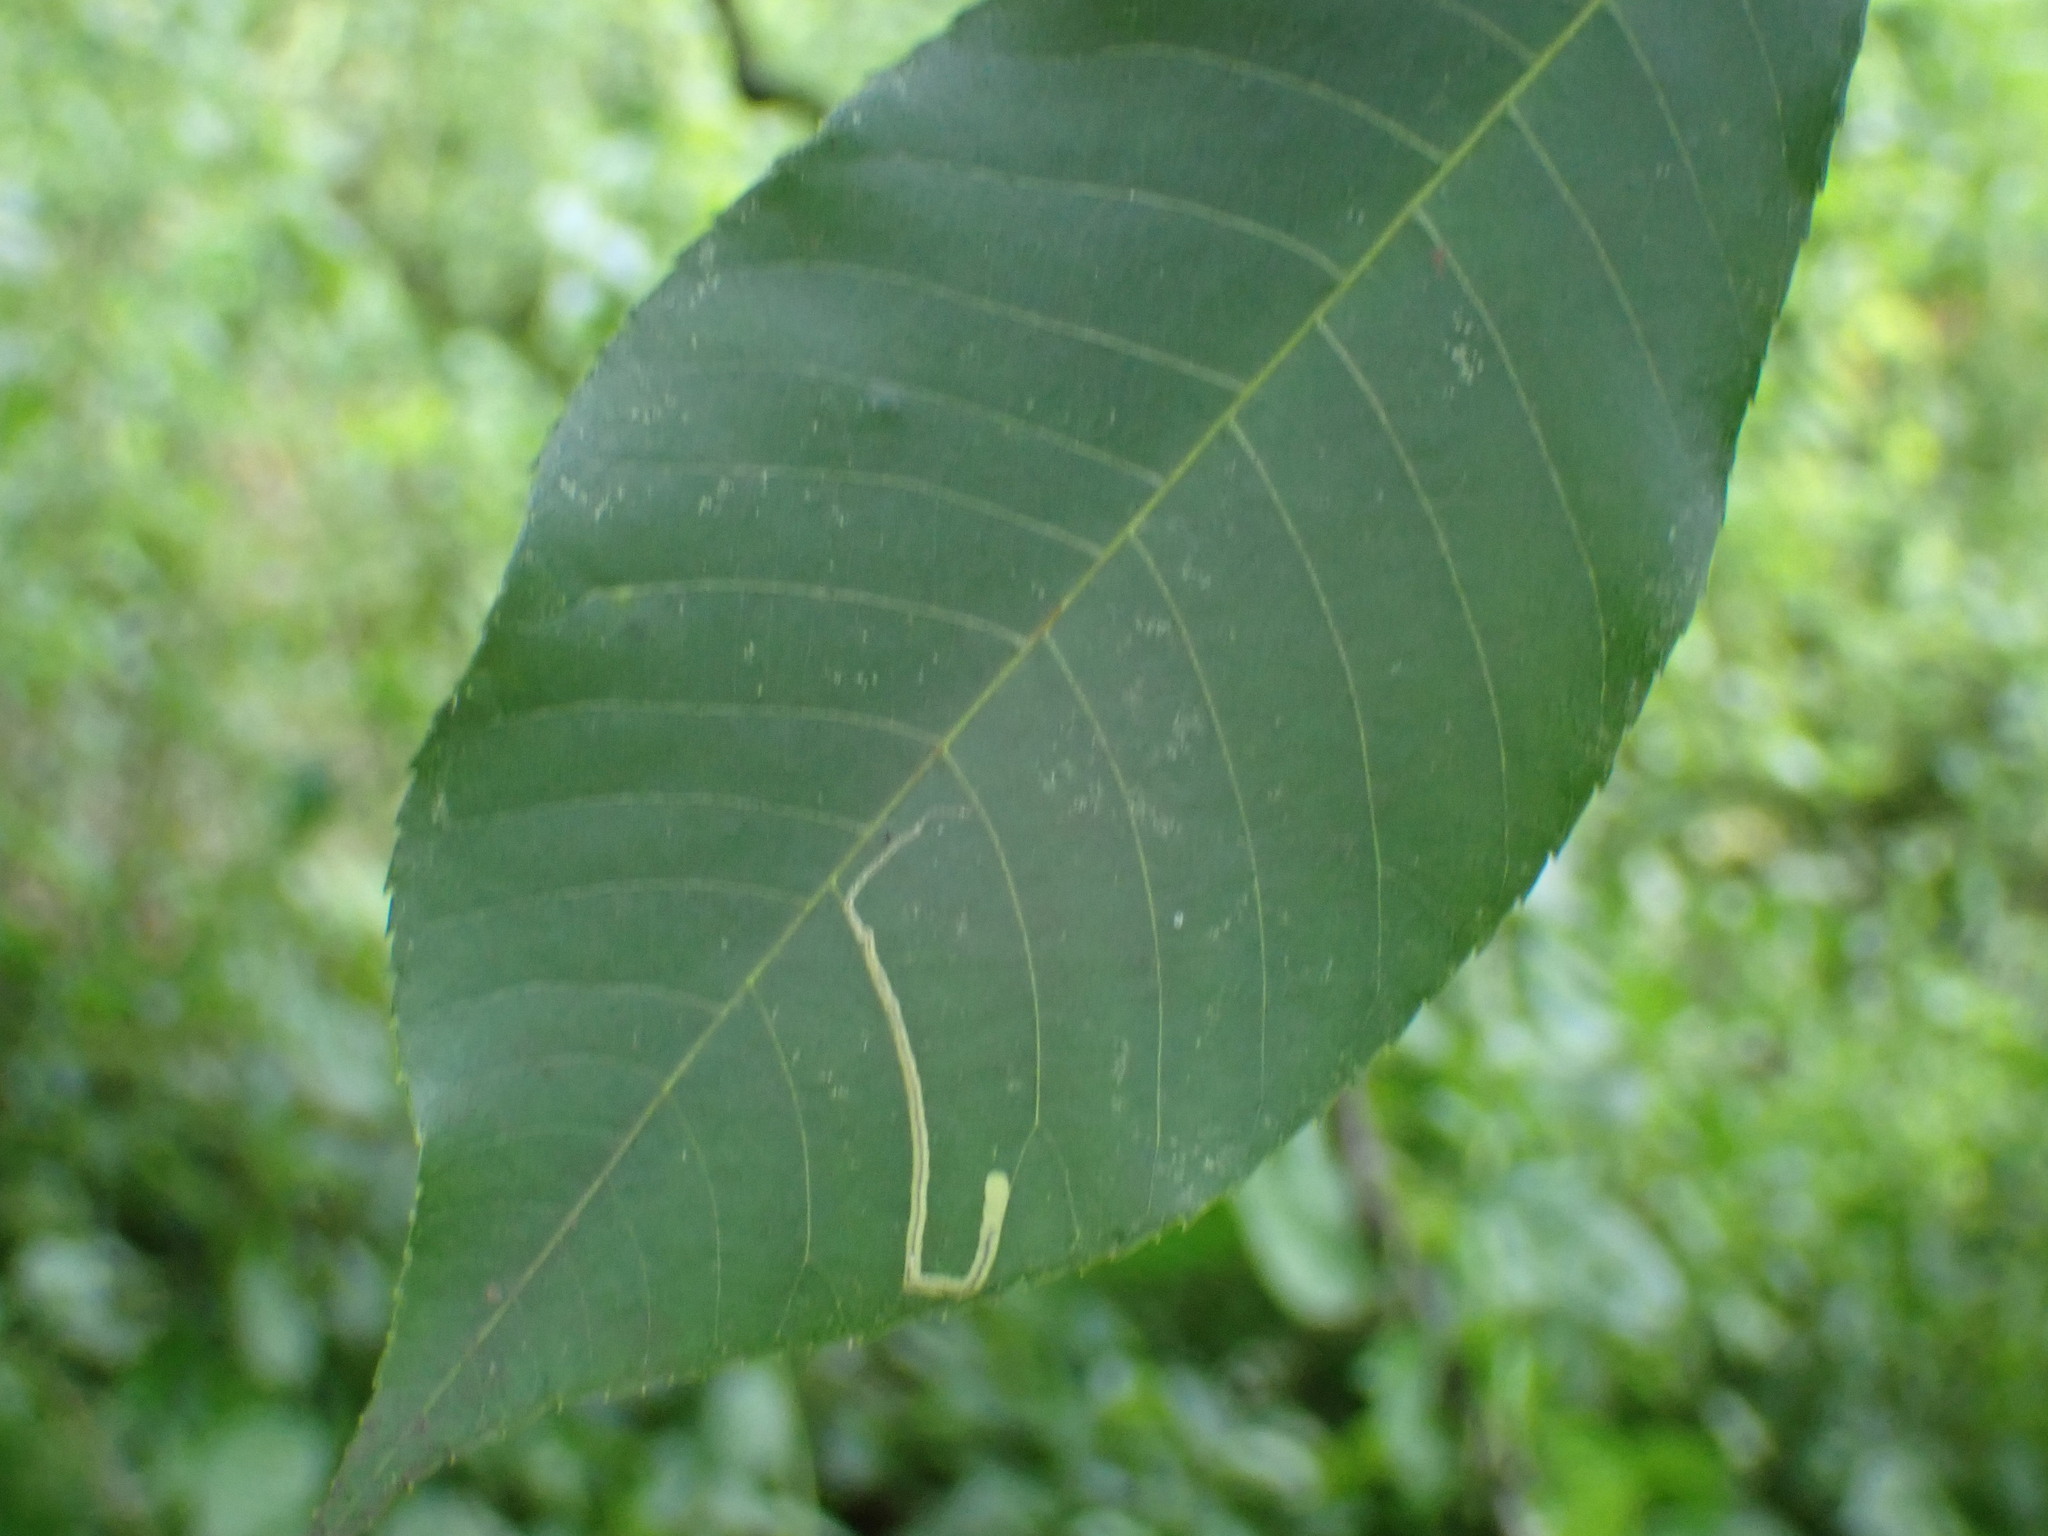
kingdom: Animalia
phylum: Arthropoda
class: Insecta
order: Lepidoptera
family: Nepticulidae
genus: Stigmella
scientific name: Stigmella caryaefoliella
